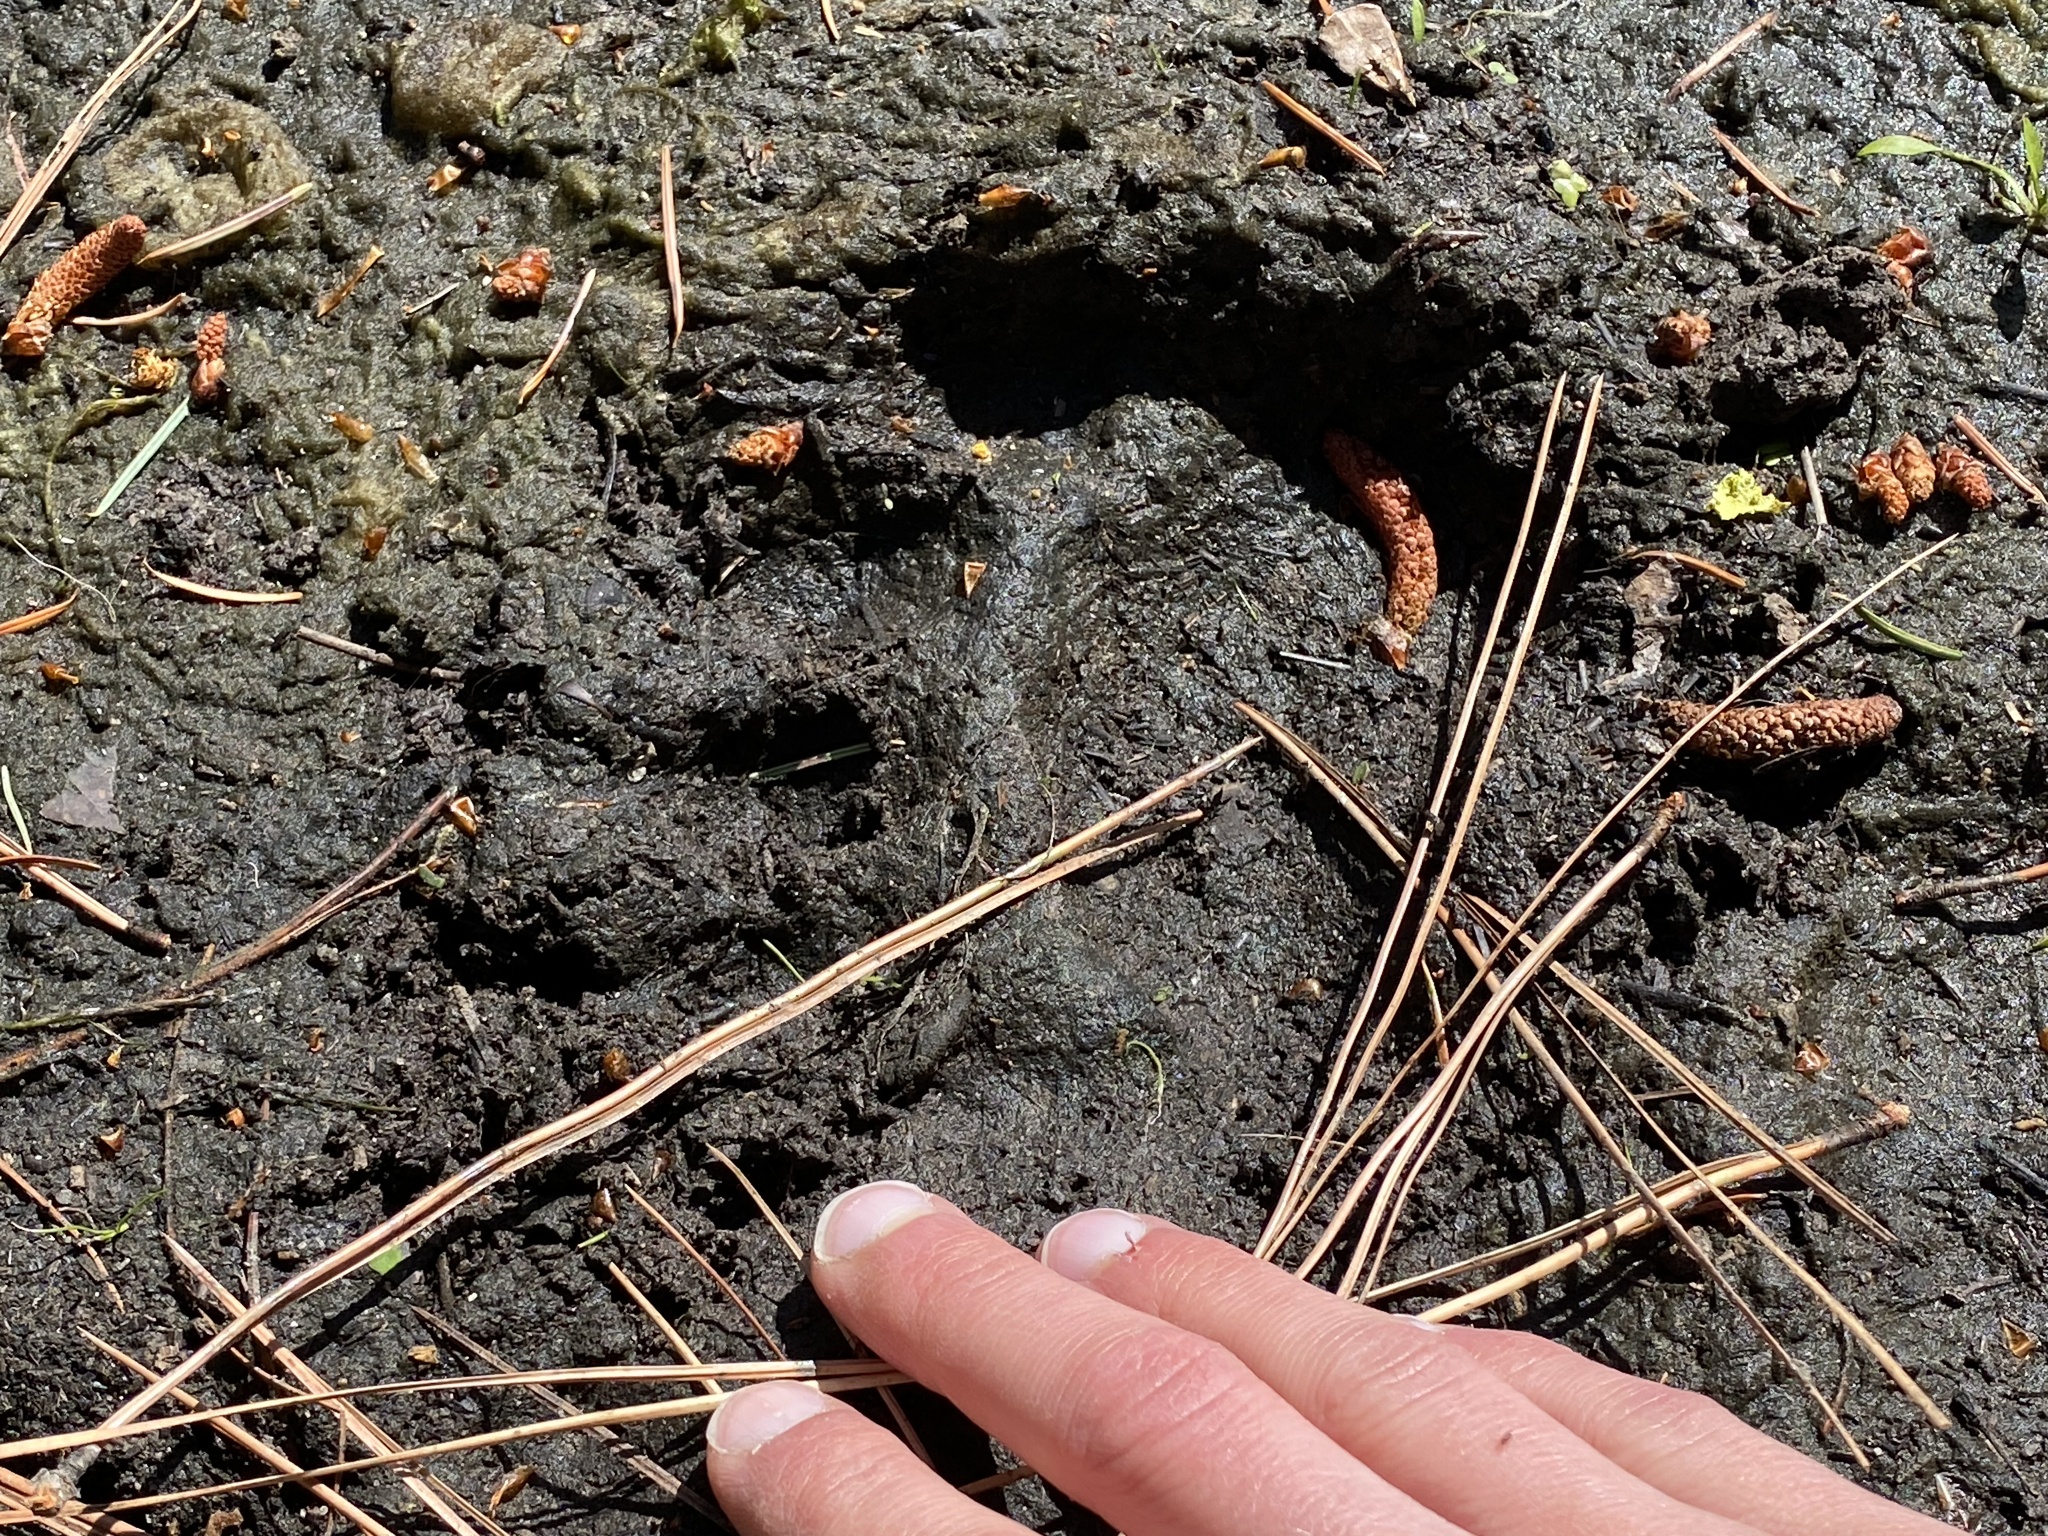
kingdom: Animalia
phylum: Chordata
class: Mammalia
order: Carnivora
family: Ursidae
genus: Ursus
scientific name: Ursus americanus
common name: American black bear
